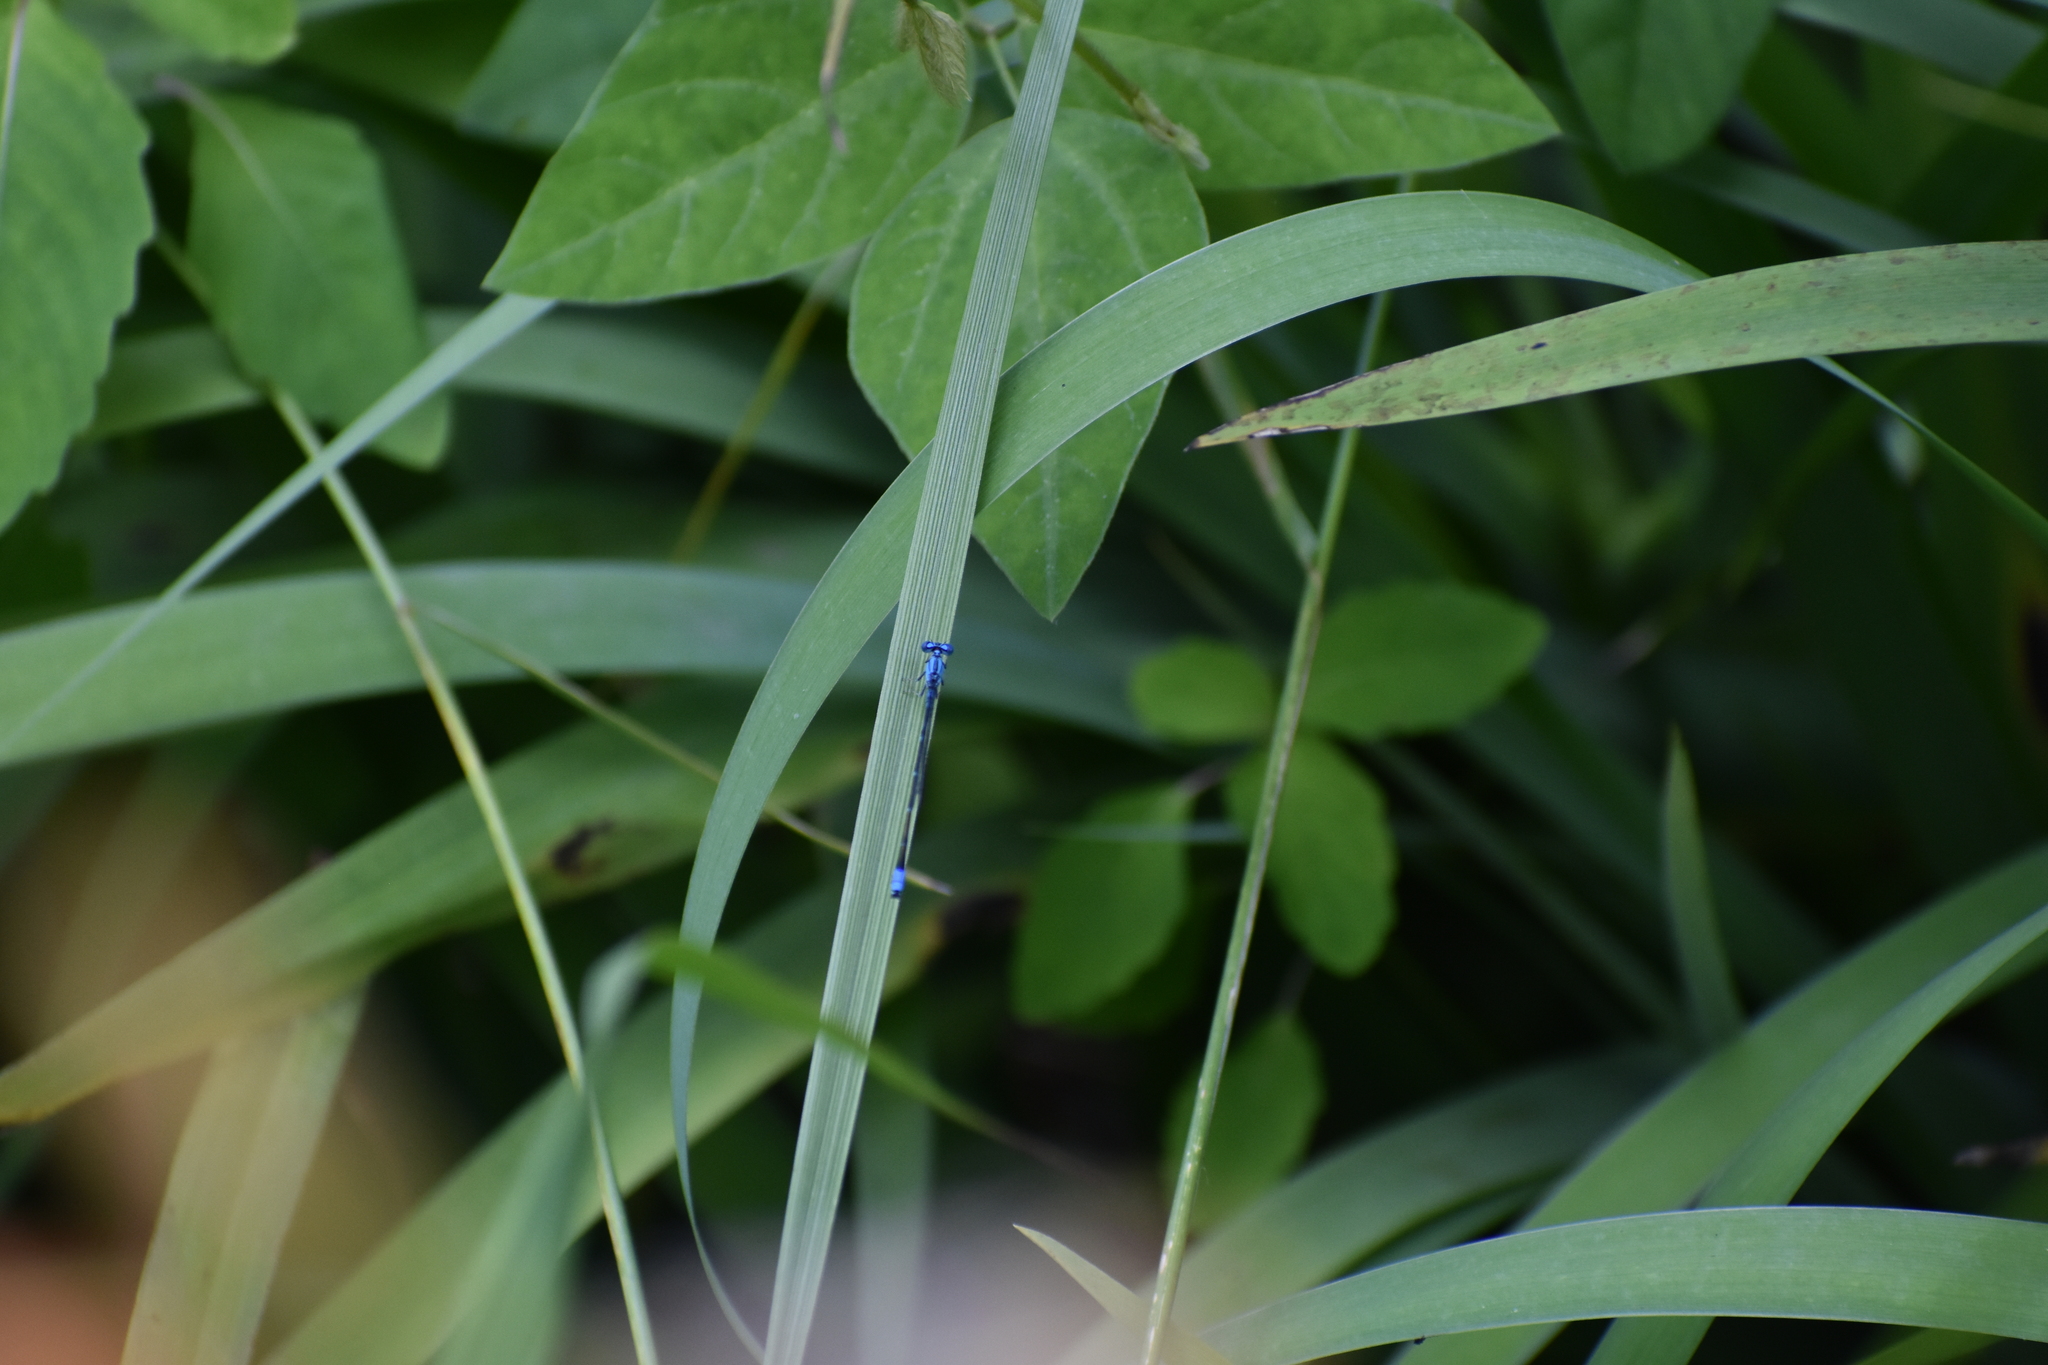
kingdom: Animalia
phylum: Arthropoda
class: Insecta
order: Odonata
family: Coenagrionidae
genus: Enallagma
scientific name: Enallagma traviatum
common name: Slender bluet
